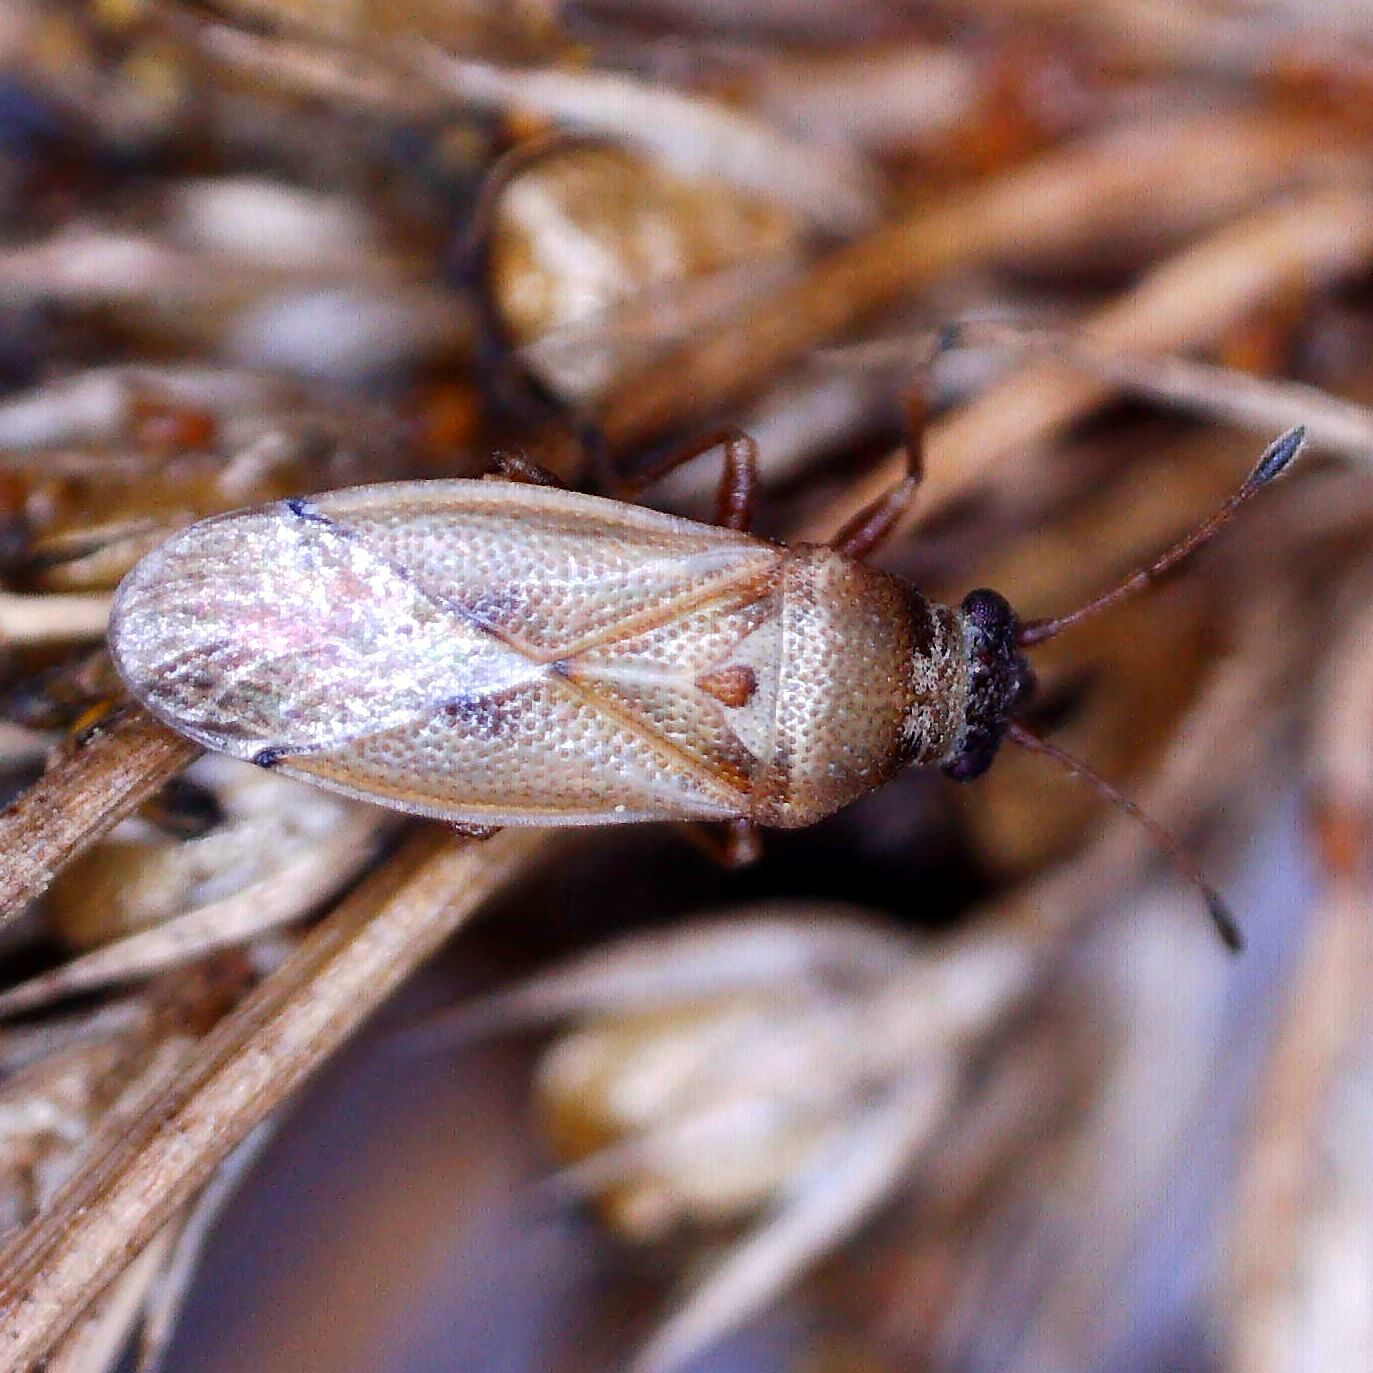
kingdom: Animalia
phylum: Arthropoda
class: Insecta
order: Hemiptera
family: Cymidae
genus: Cymus
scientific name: Cymus melanocephalus
